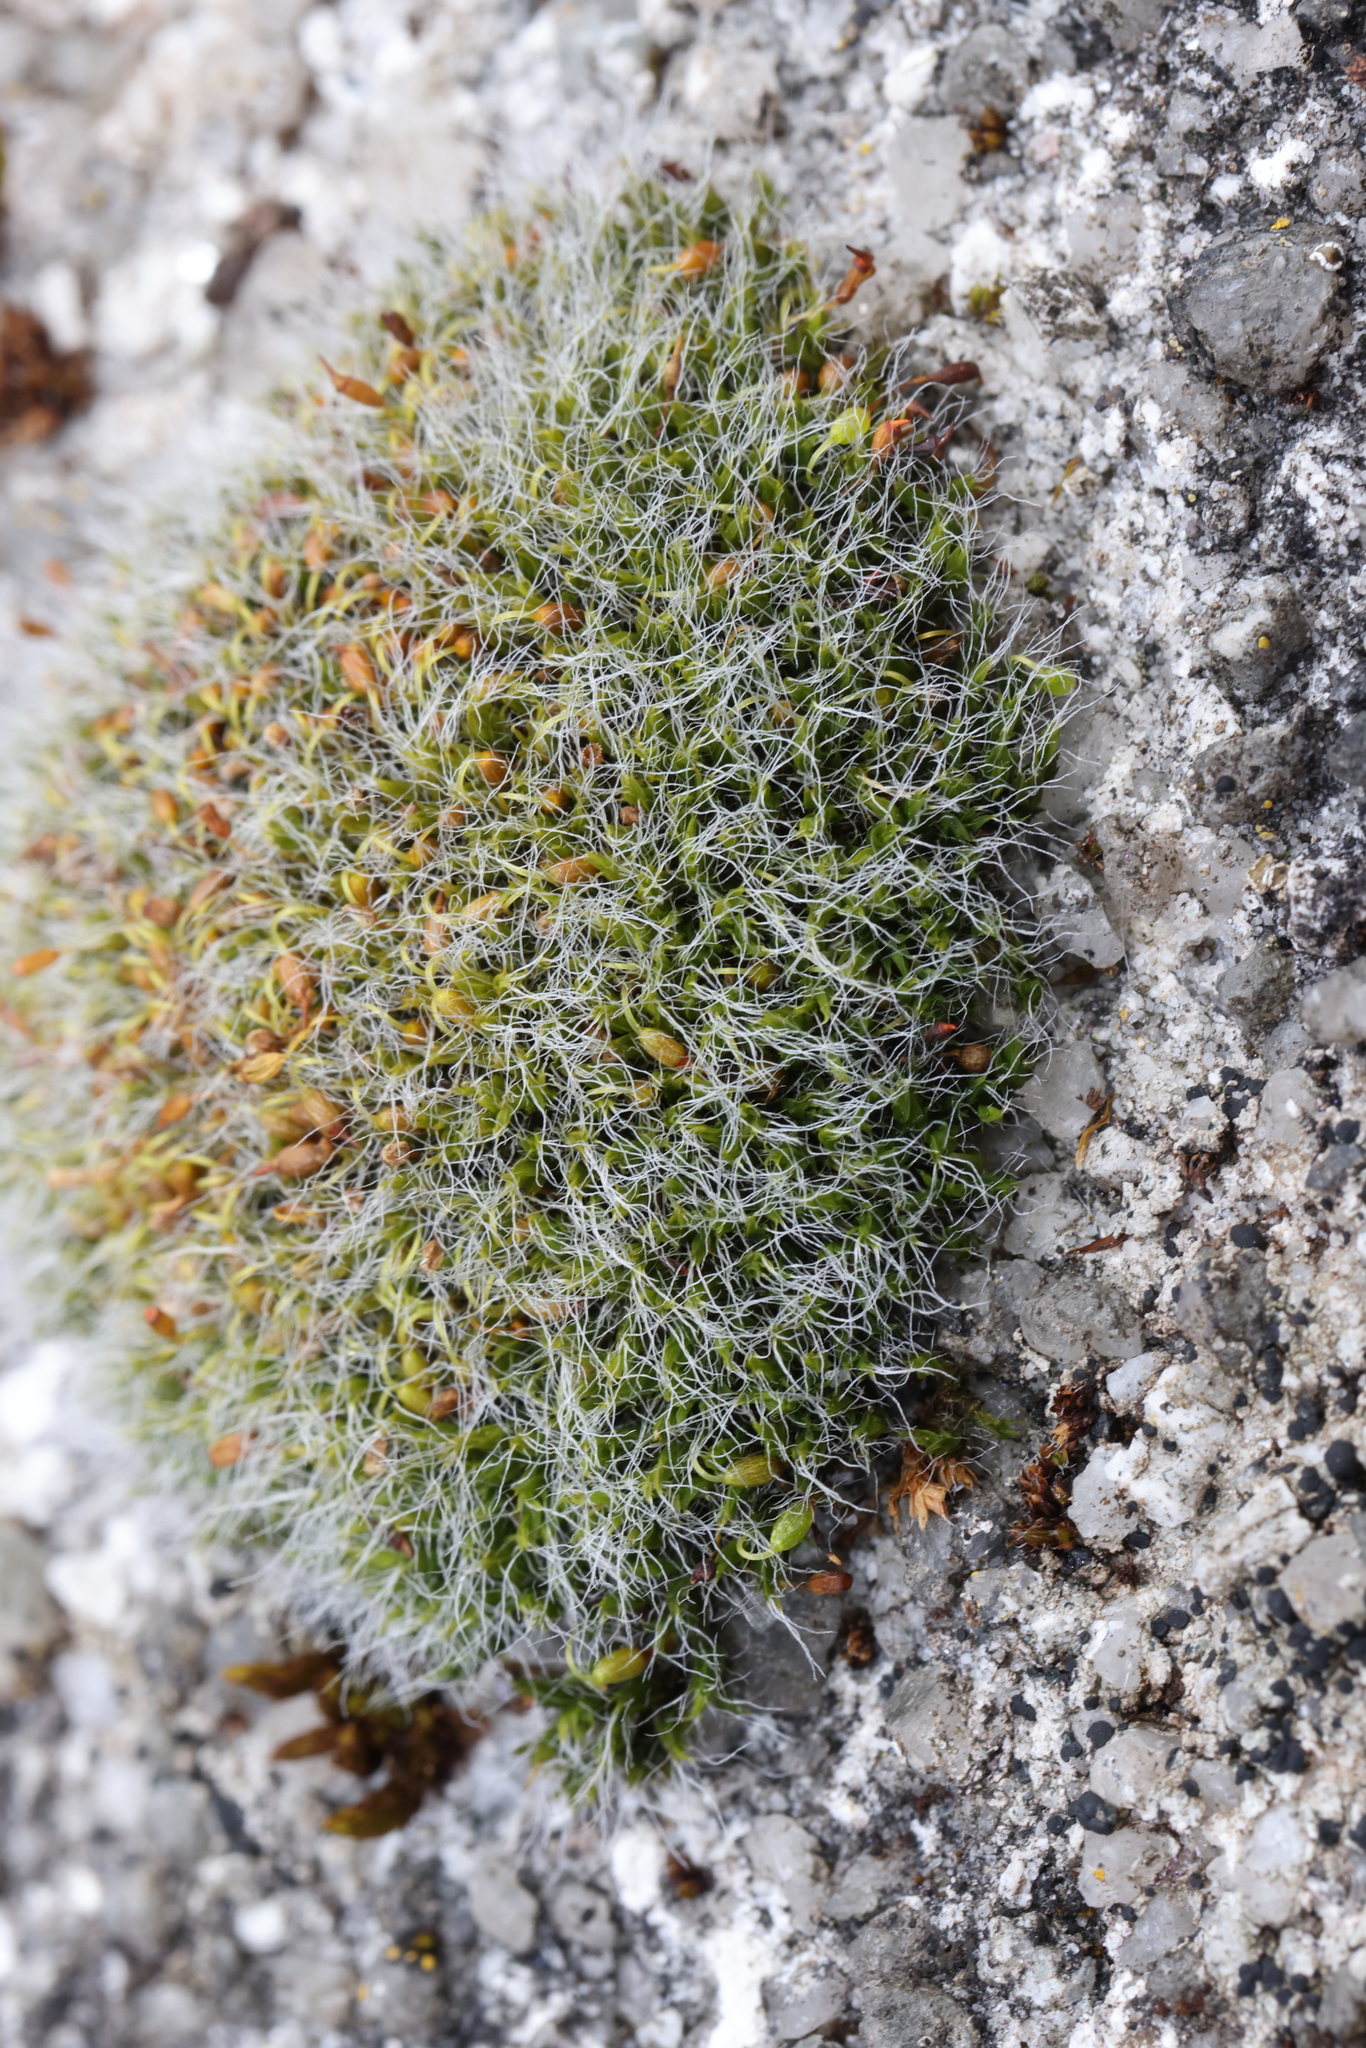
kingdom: Plantae
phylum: Bryophyta
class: Bryopsida
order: Grimmiales
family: Grimmiaceae
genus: Grimmia
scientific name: Grimmia pulvinata
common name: Grey-cushioned grimmia
